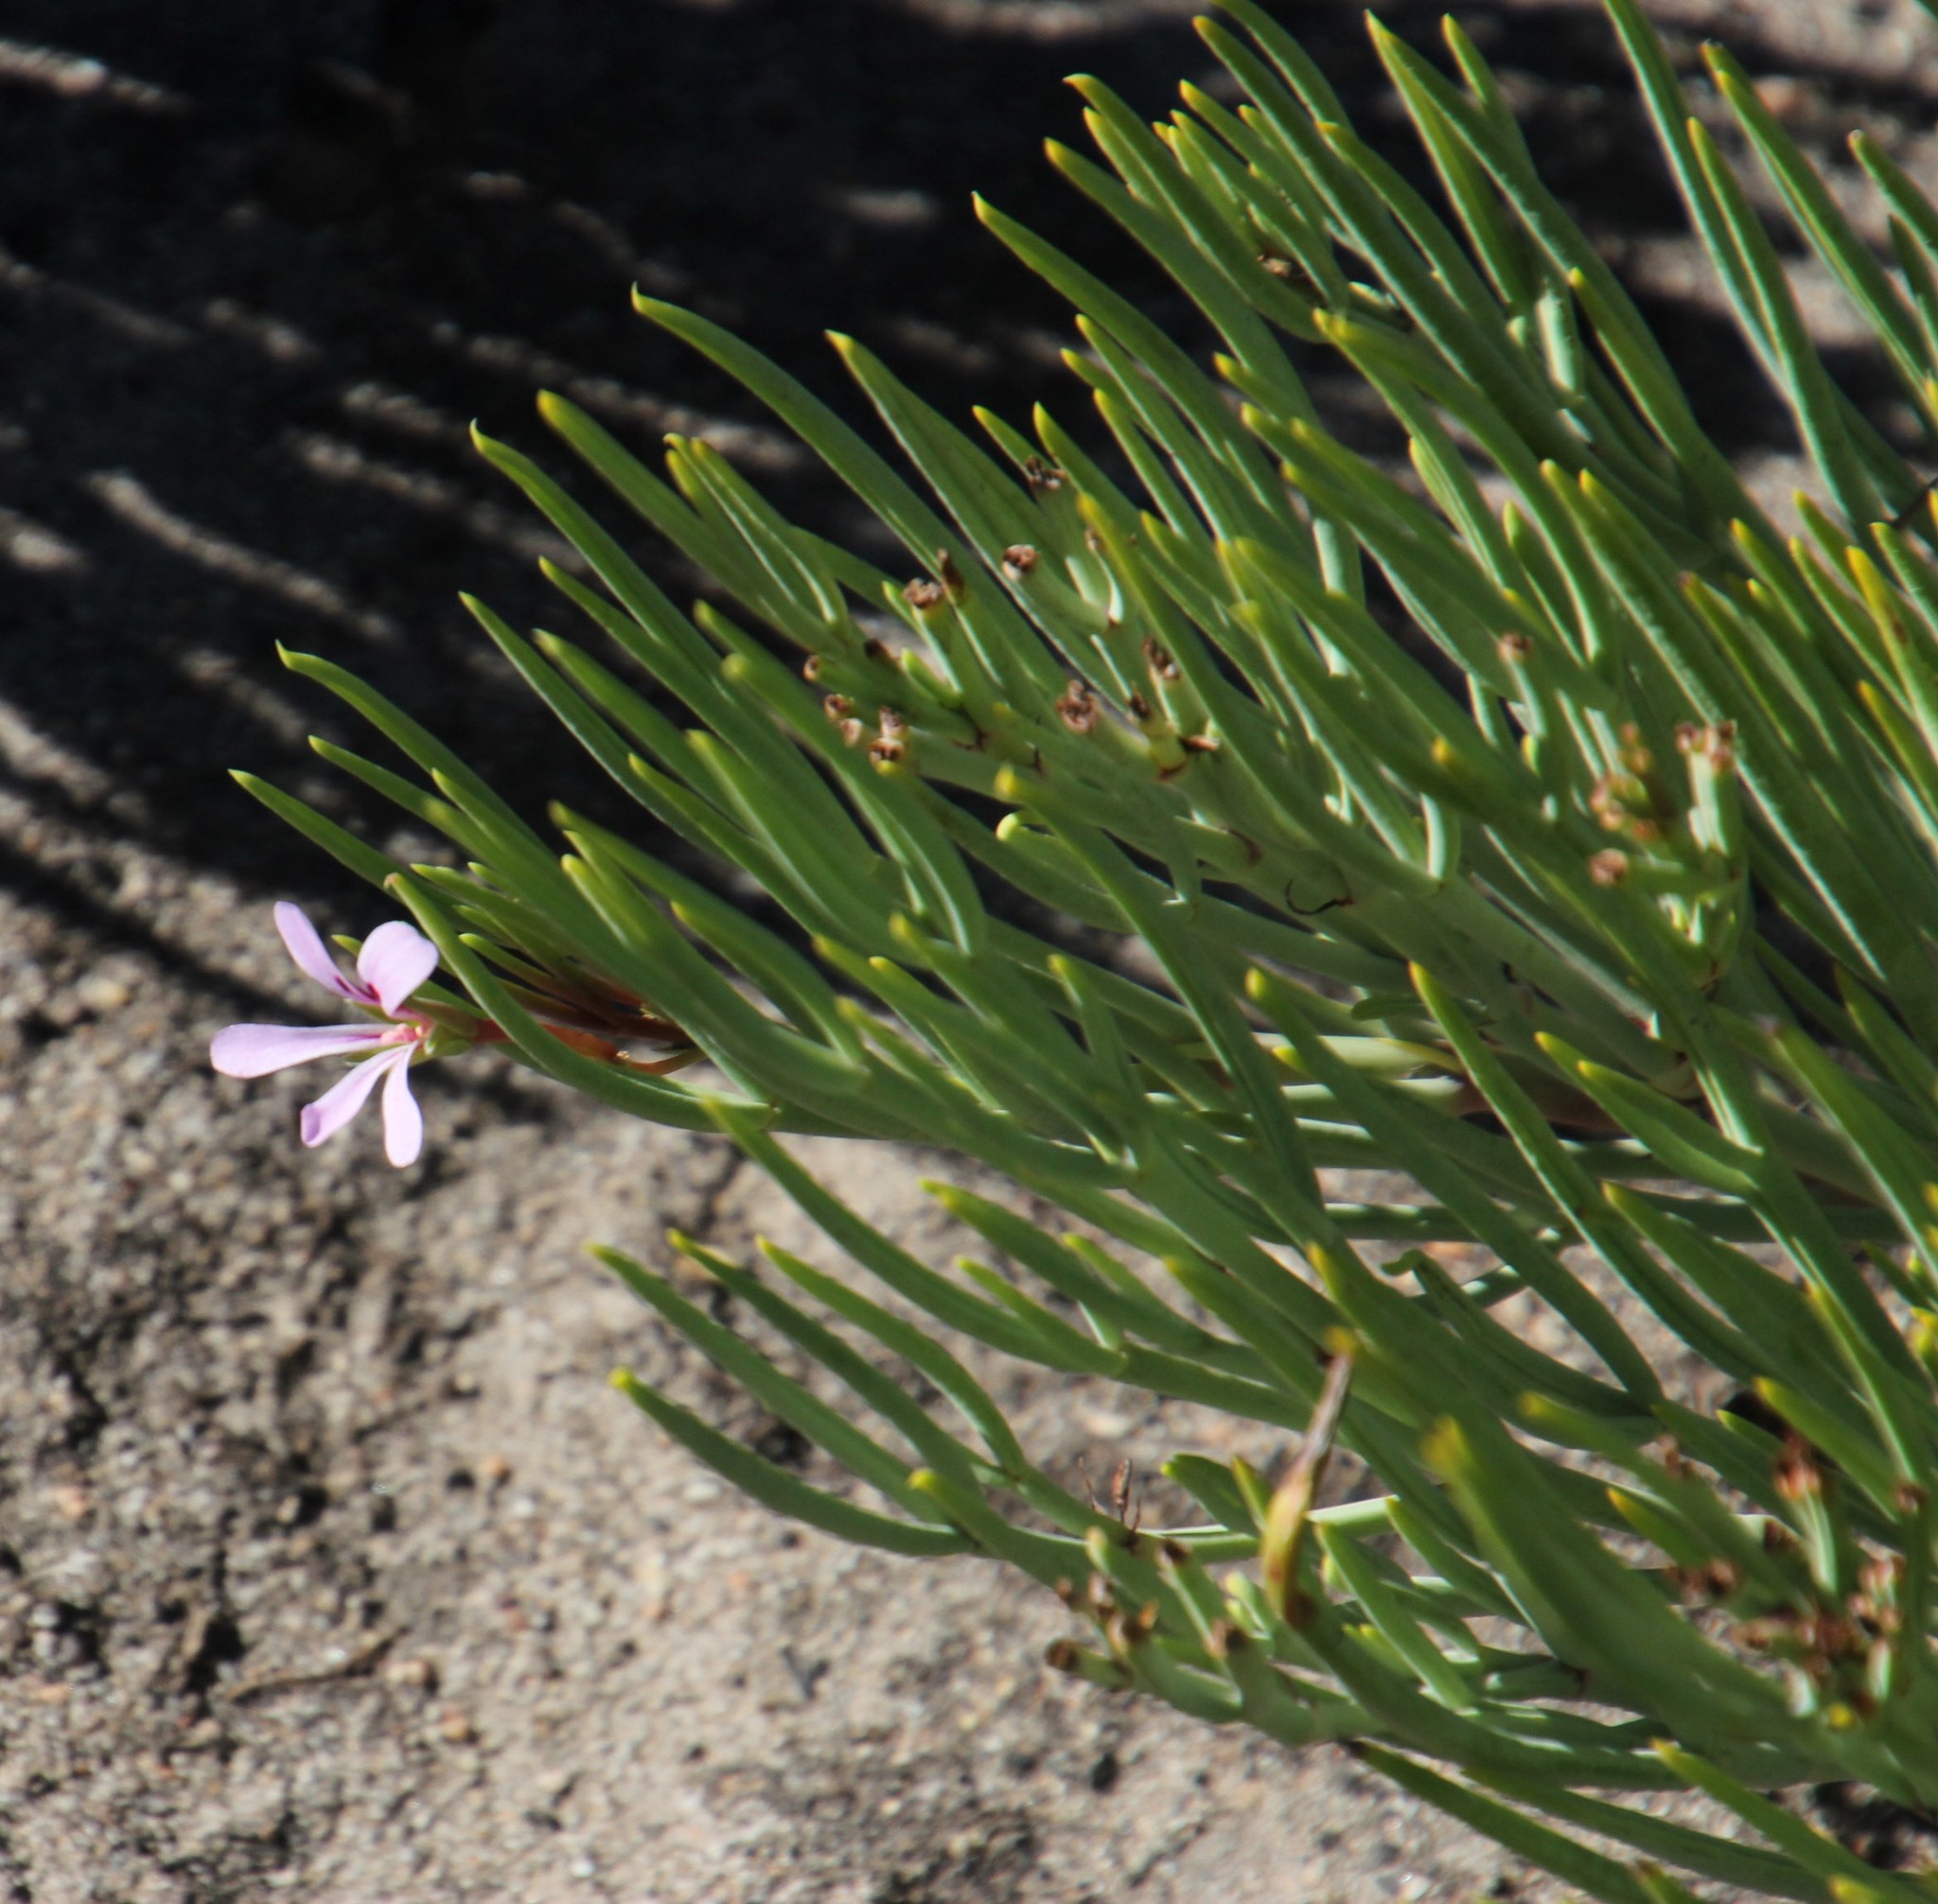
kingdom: Plantae
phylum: Tracheophyta
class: Magnoliopsida
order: Geraniales
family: Geraniaceae
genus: Pelargonium
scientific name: Pelargonium laevigatum
